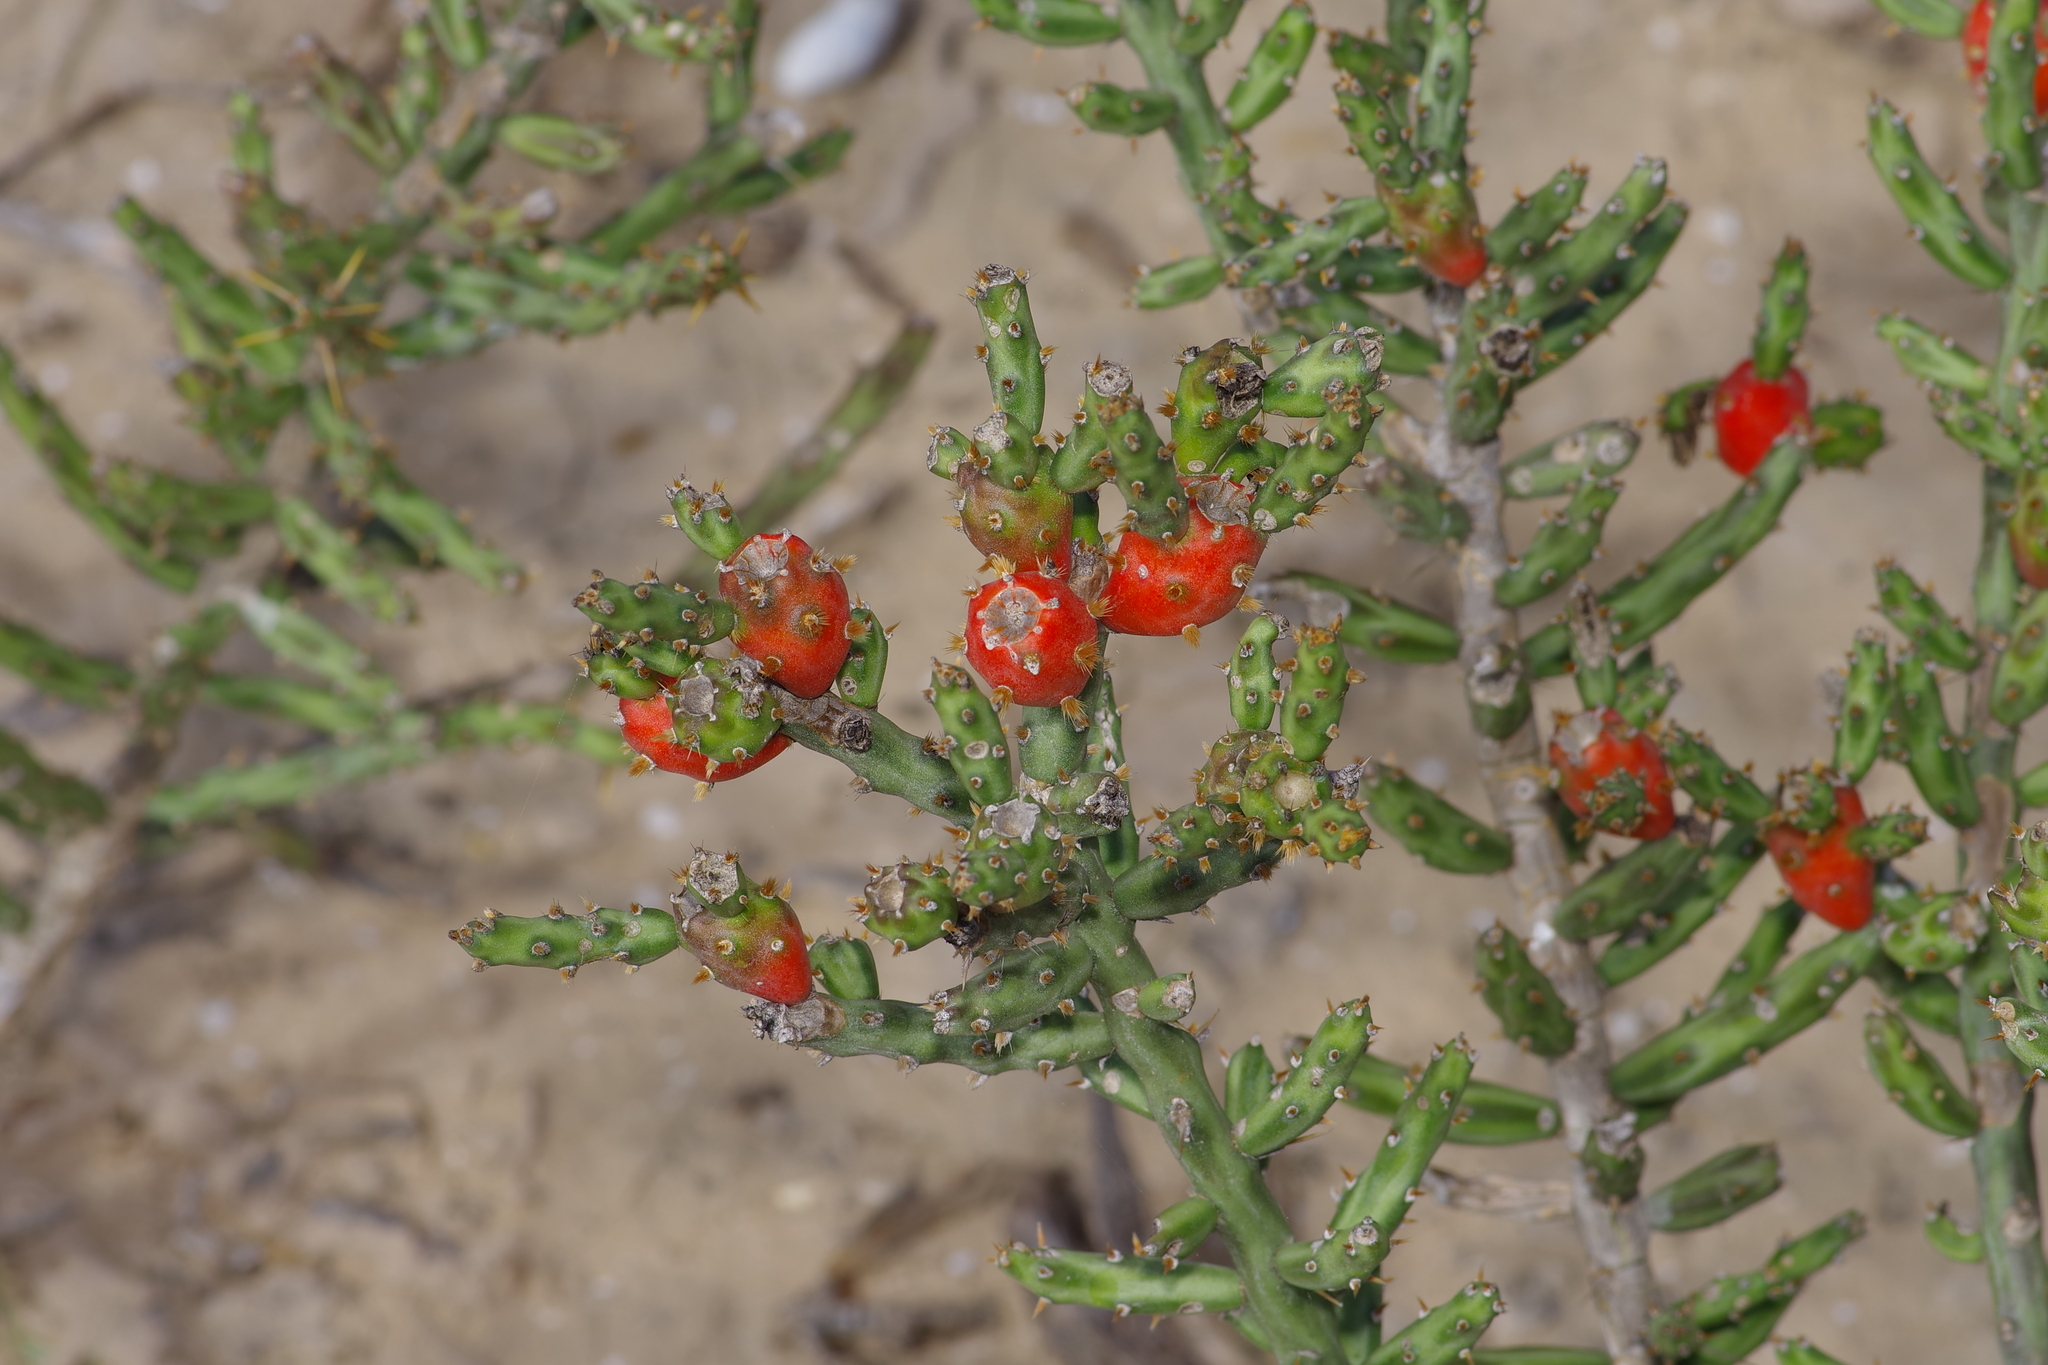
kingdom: Plantae
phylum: Tracheophyta
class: Magnoliopsida
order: Caryophyllales
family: Cactaceae
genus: Cylindropuntia
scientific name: Cylindropuntia leptocaulis
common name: Christmas cactus
